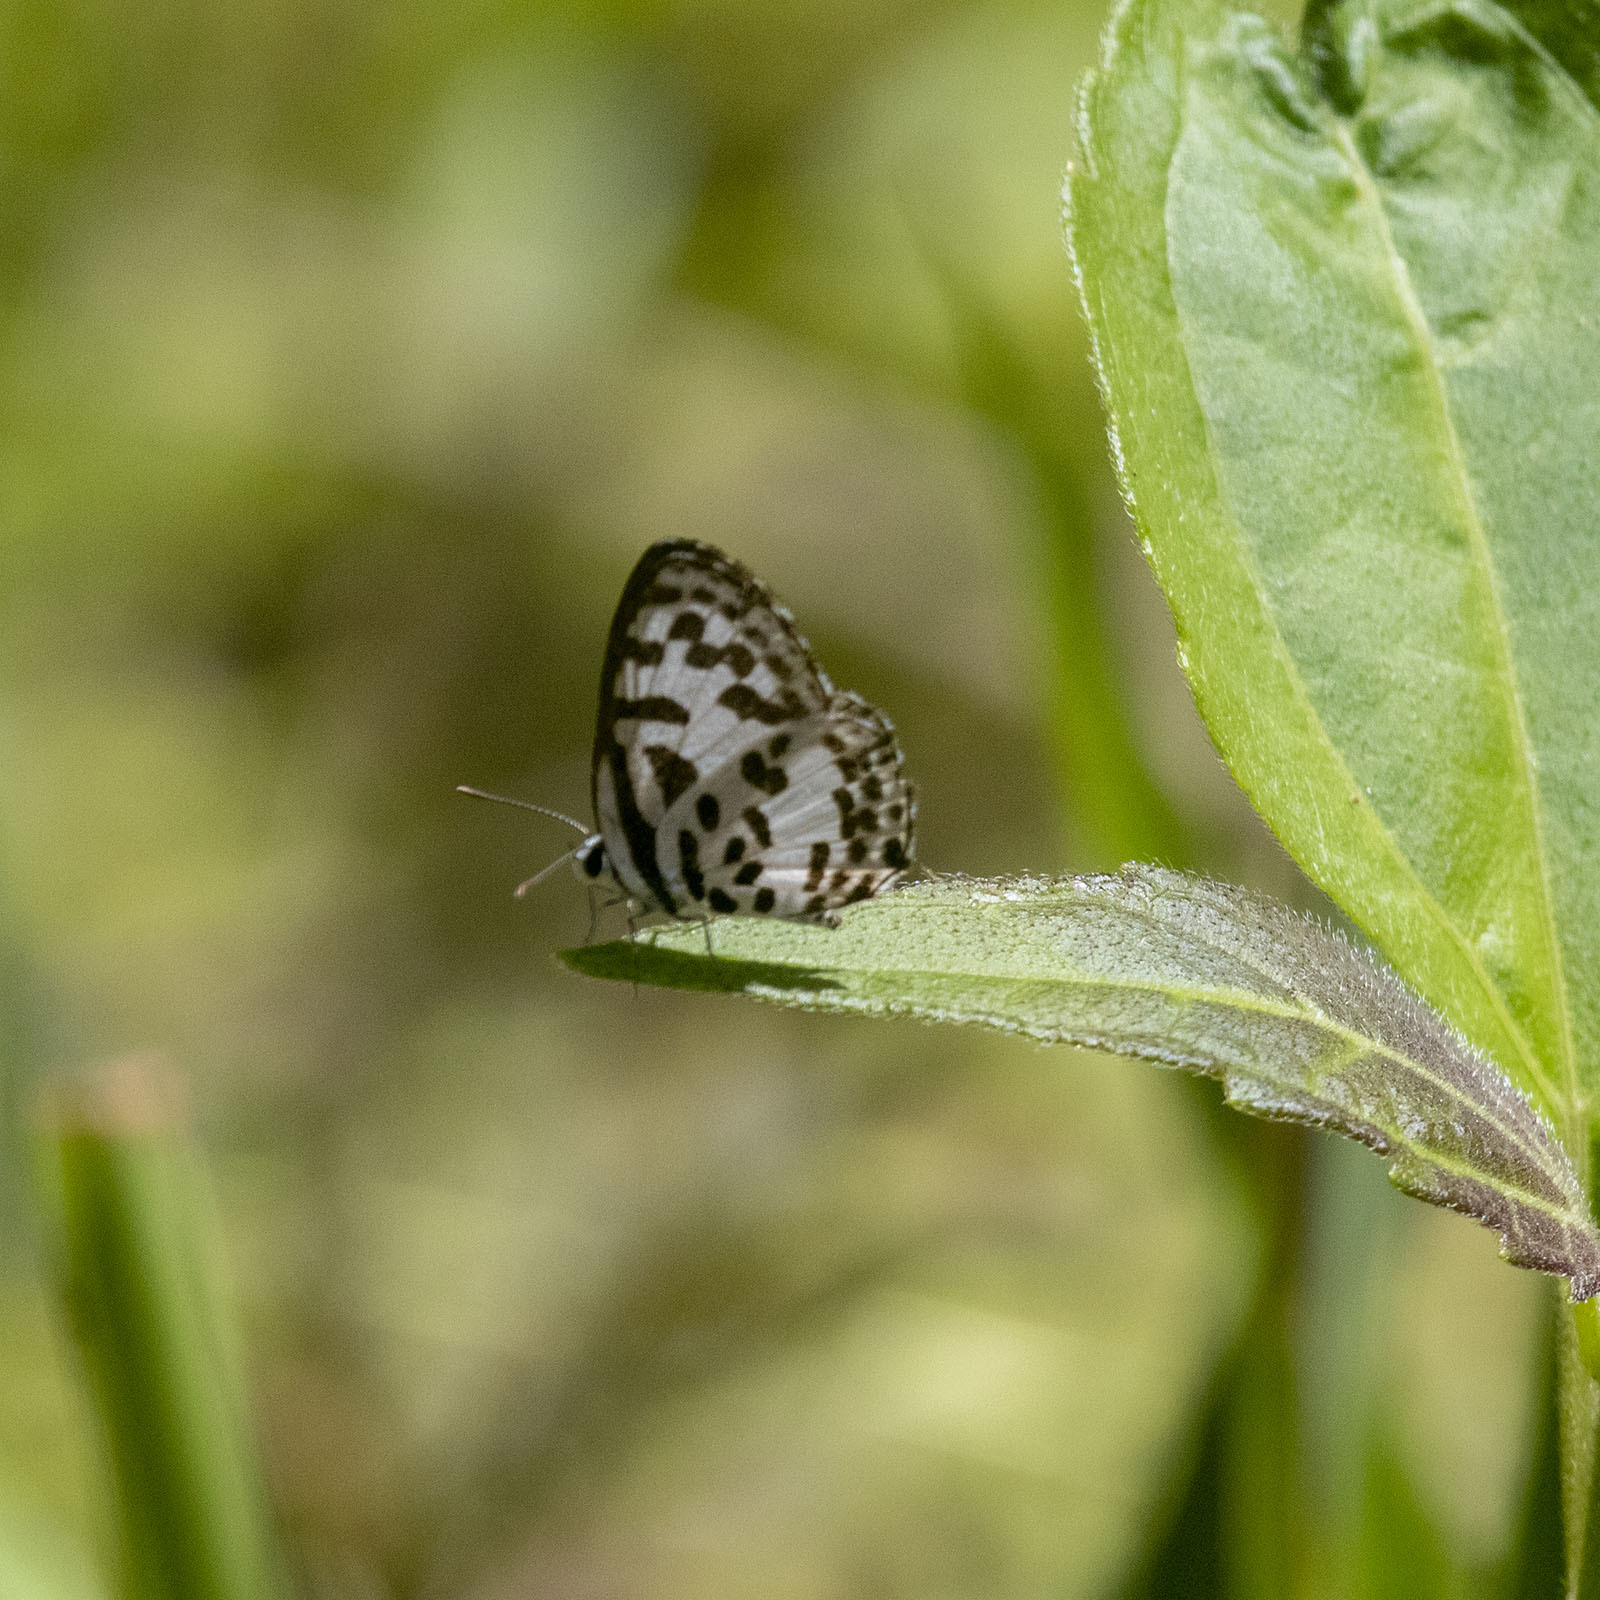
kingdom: Animalia
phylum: Arthropoda
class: Insecta
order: Lepidoptera
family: Lycaenidae
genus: Castalius
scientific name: Castalius rosimon
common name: Common pierrot
